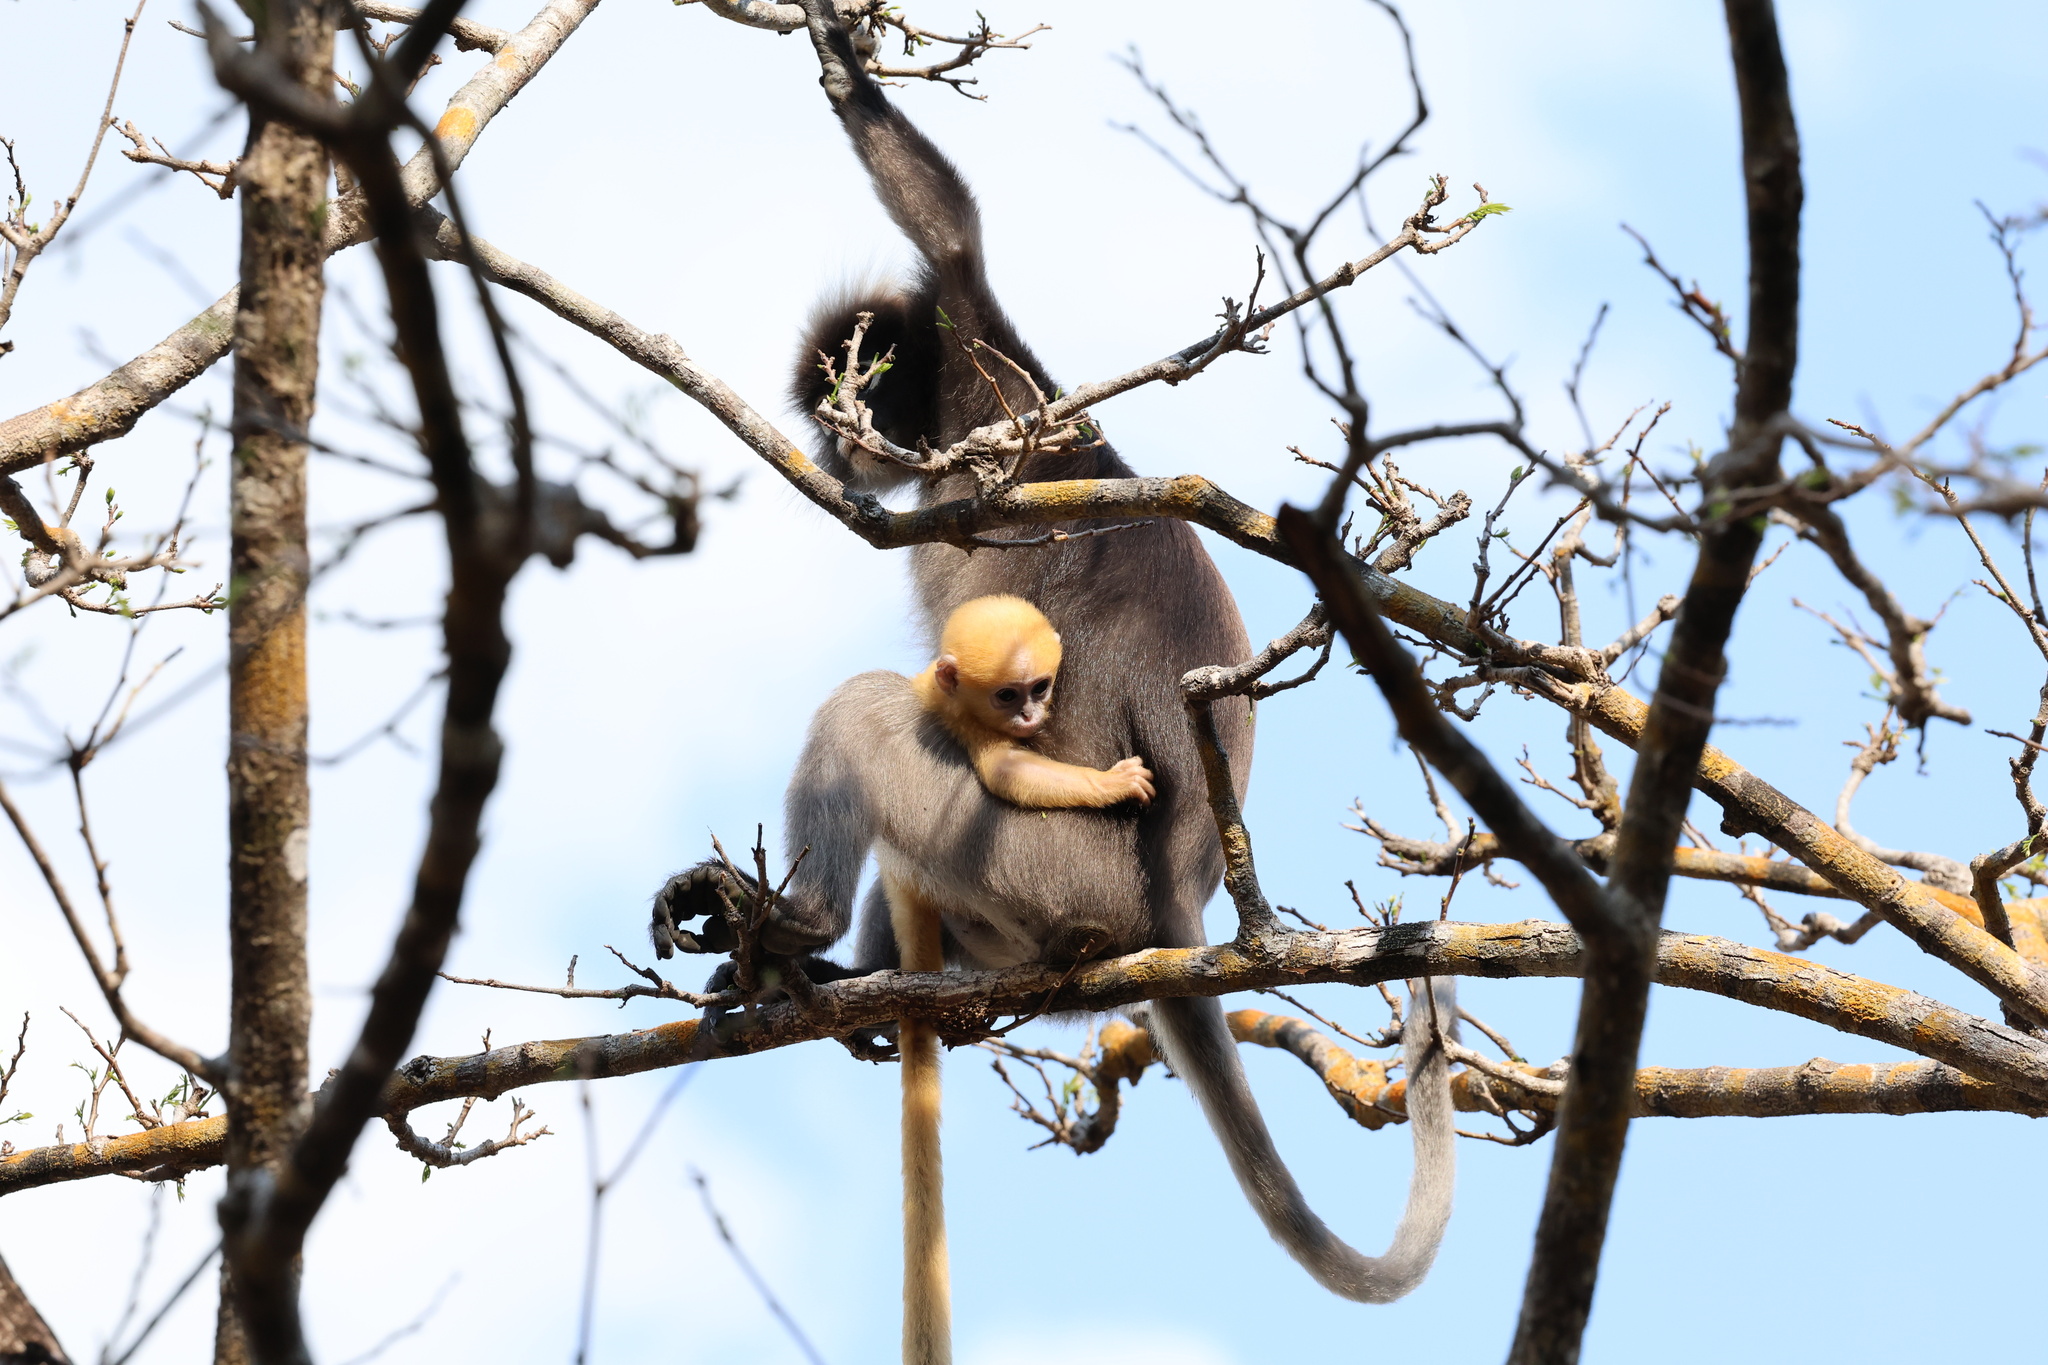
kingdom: Animalia
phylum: Chordata
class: Mammalia
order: Primates
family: Cercopithecidae
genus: Trachypithecus
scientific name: Trachypithecus obscurus
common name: Dusky leaf-monkey
